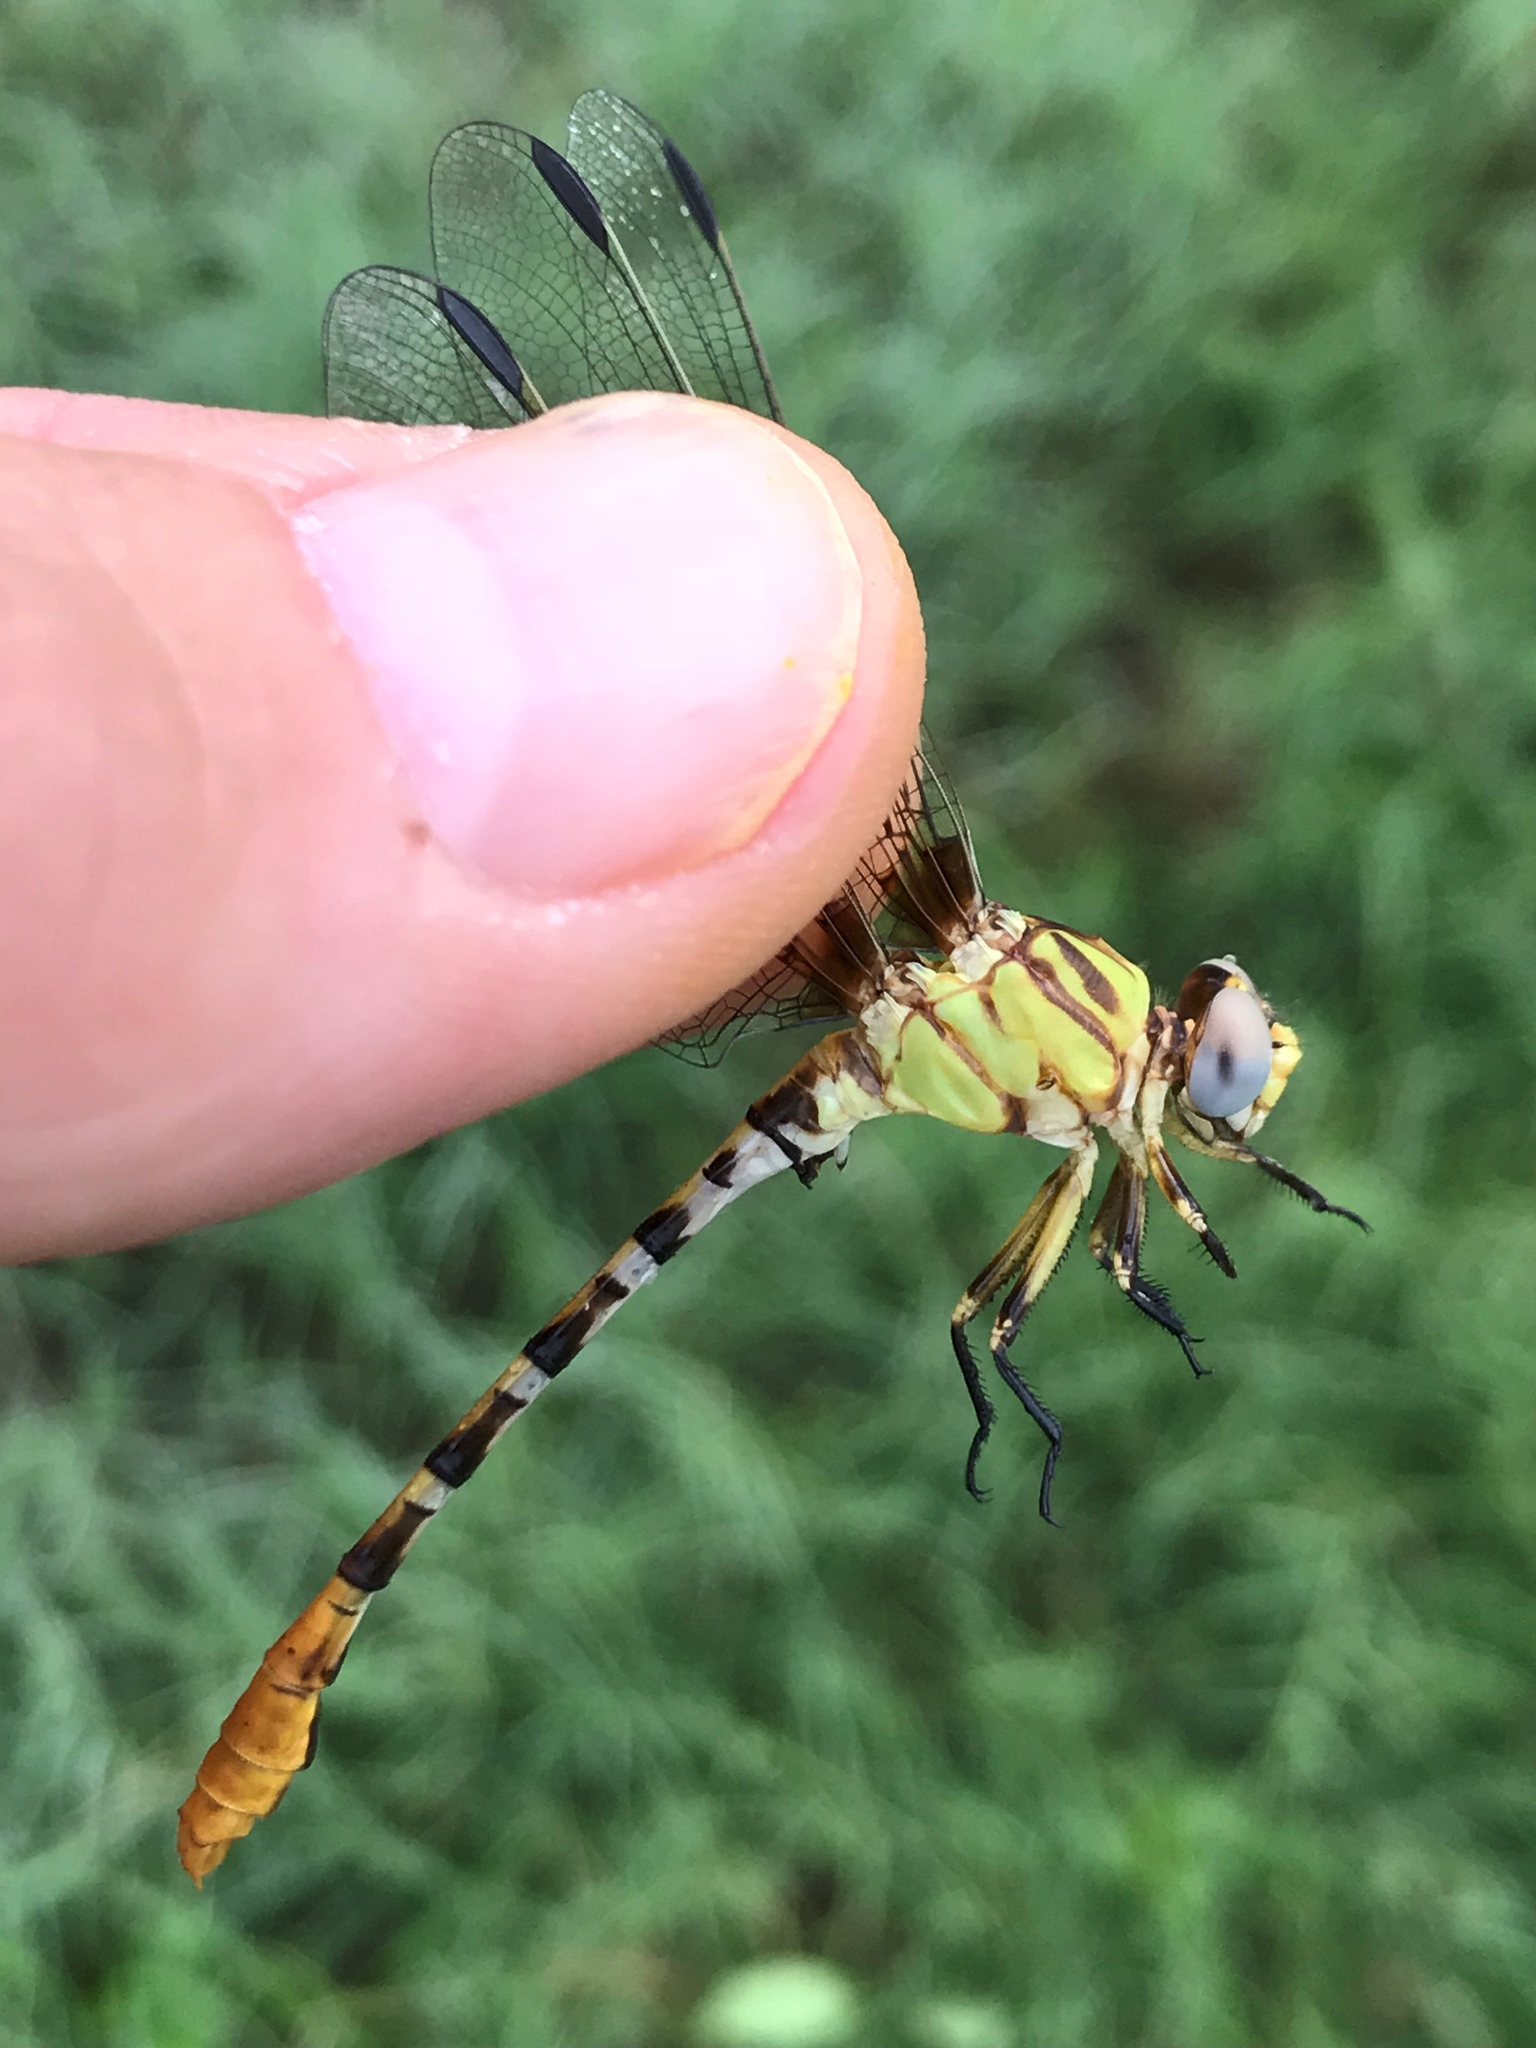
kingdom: Animalia
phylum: Arthropoda
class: Insecta
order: Odonata
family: Gomphidae
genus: Erpetogomphus
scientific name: Erpetogomphus designatus
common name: Eastern ringtail
